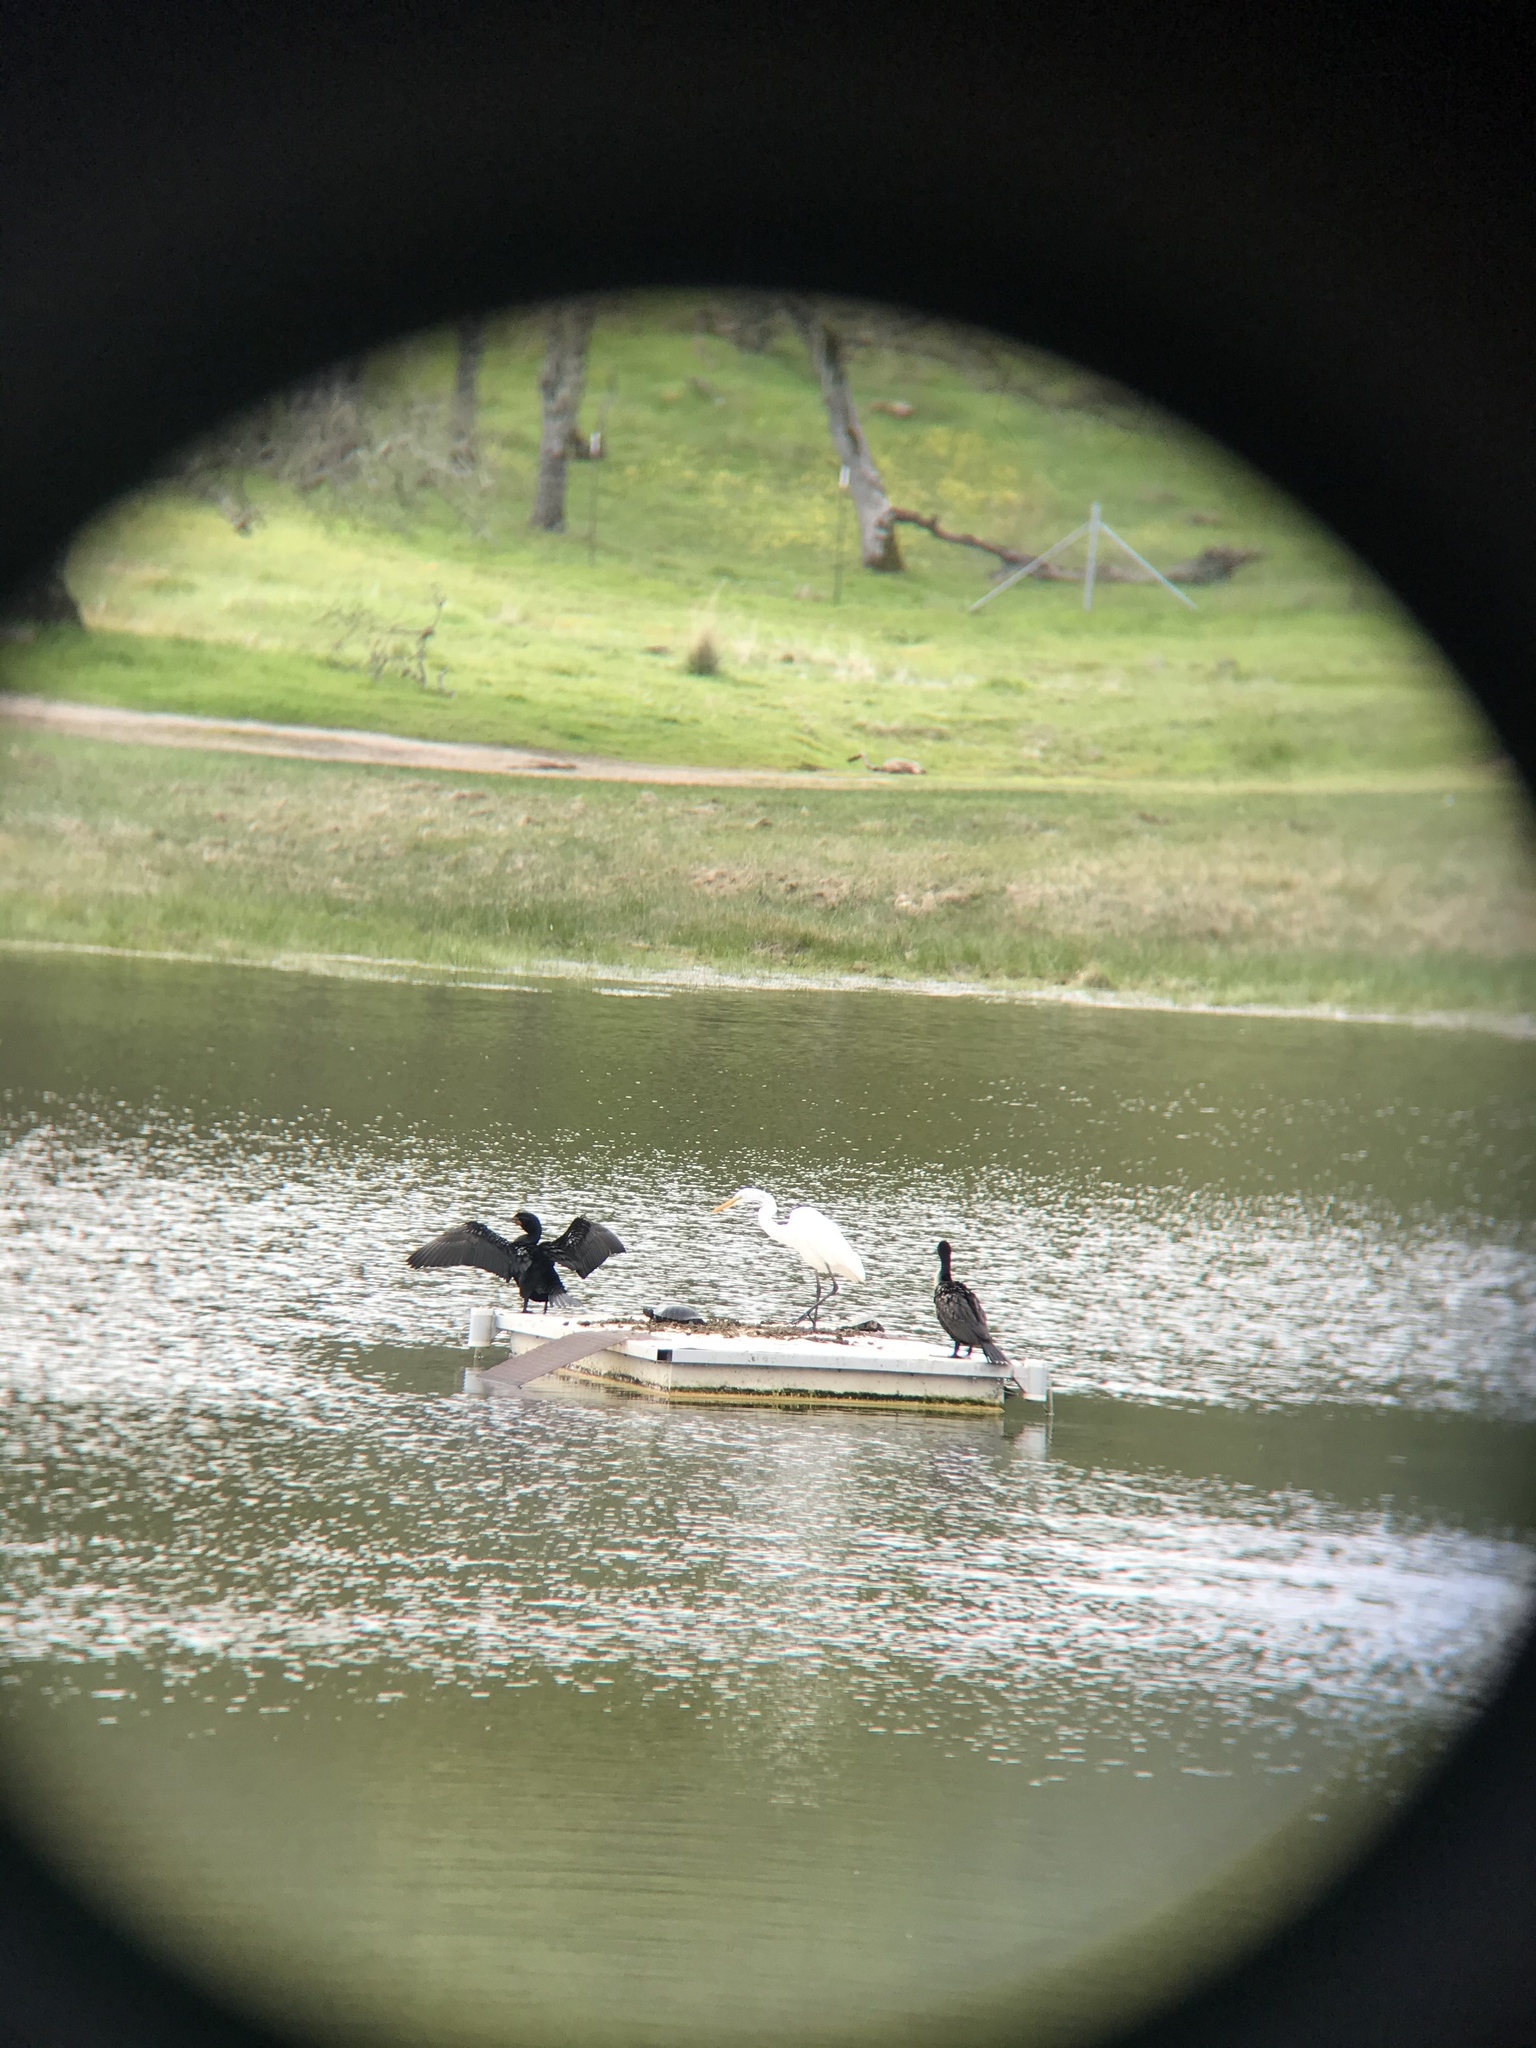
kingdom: Animalia
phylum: Chordata
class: Aves
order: Pelecaniformes
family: Ardeidae
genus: Ardea
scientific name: Ardea alba
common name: Great egret
